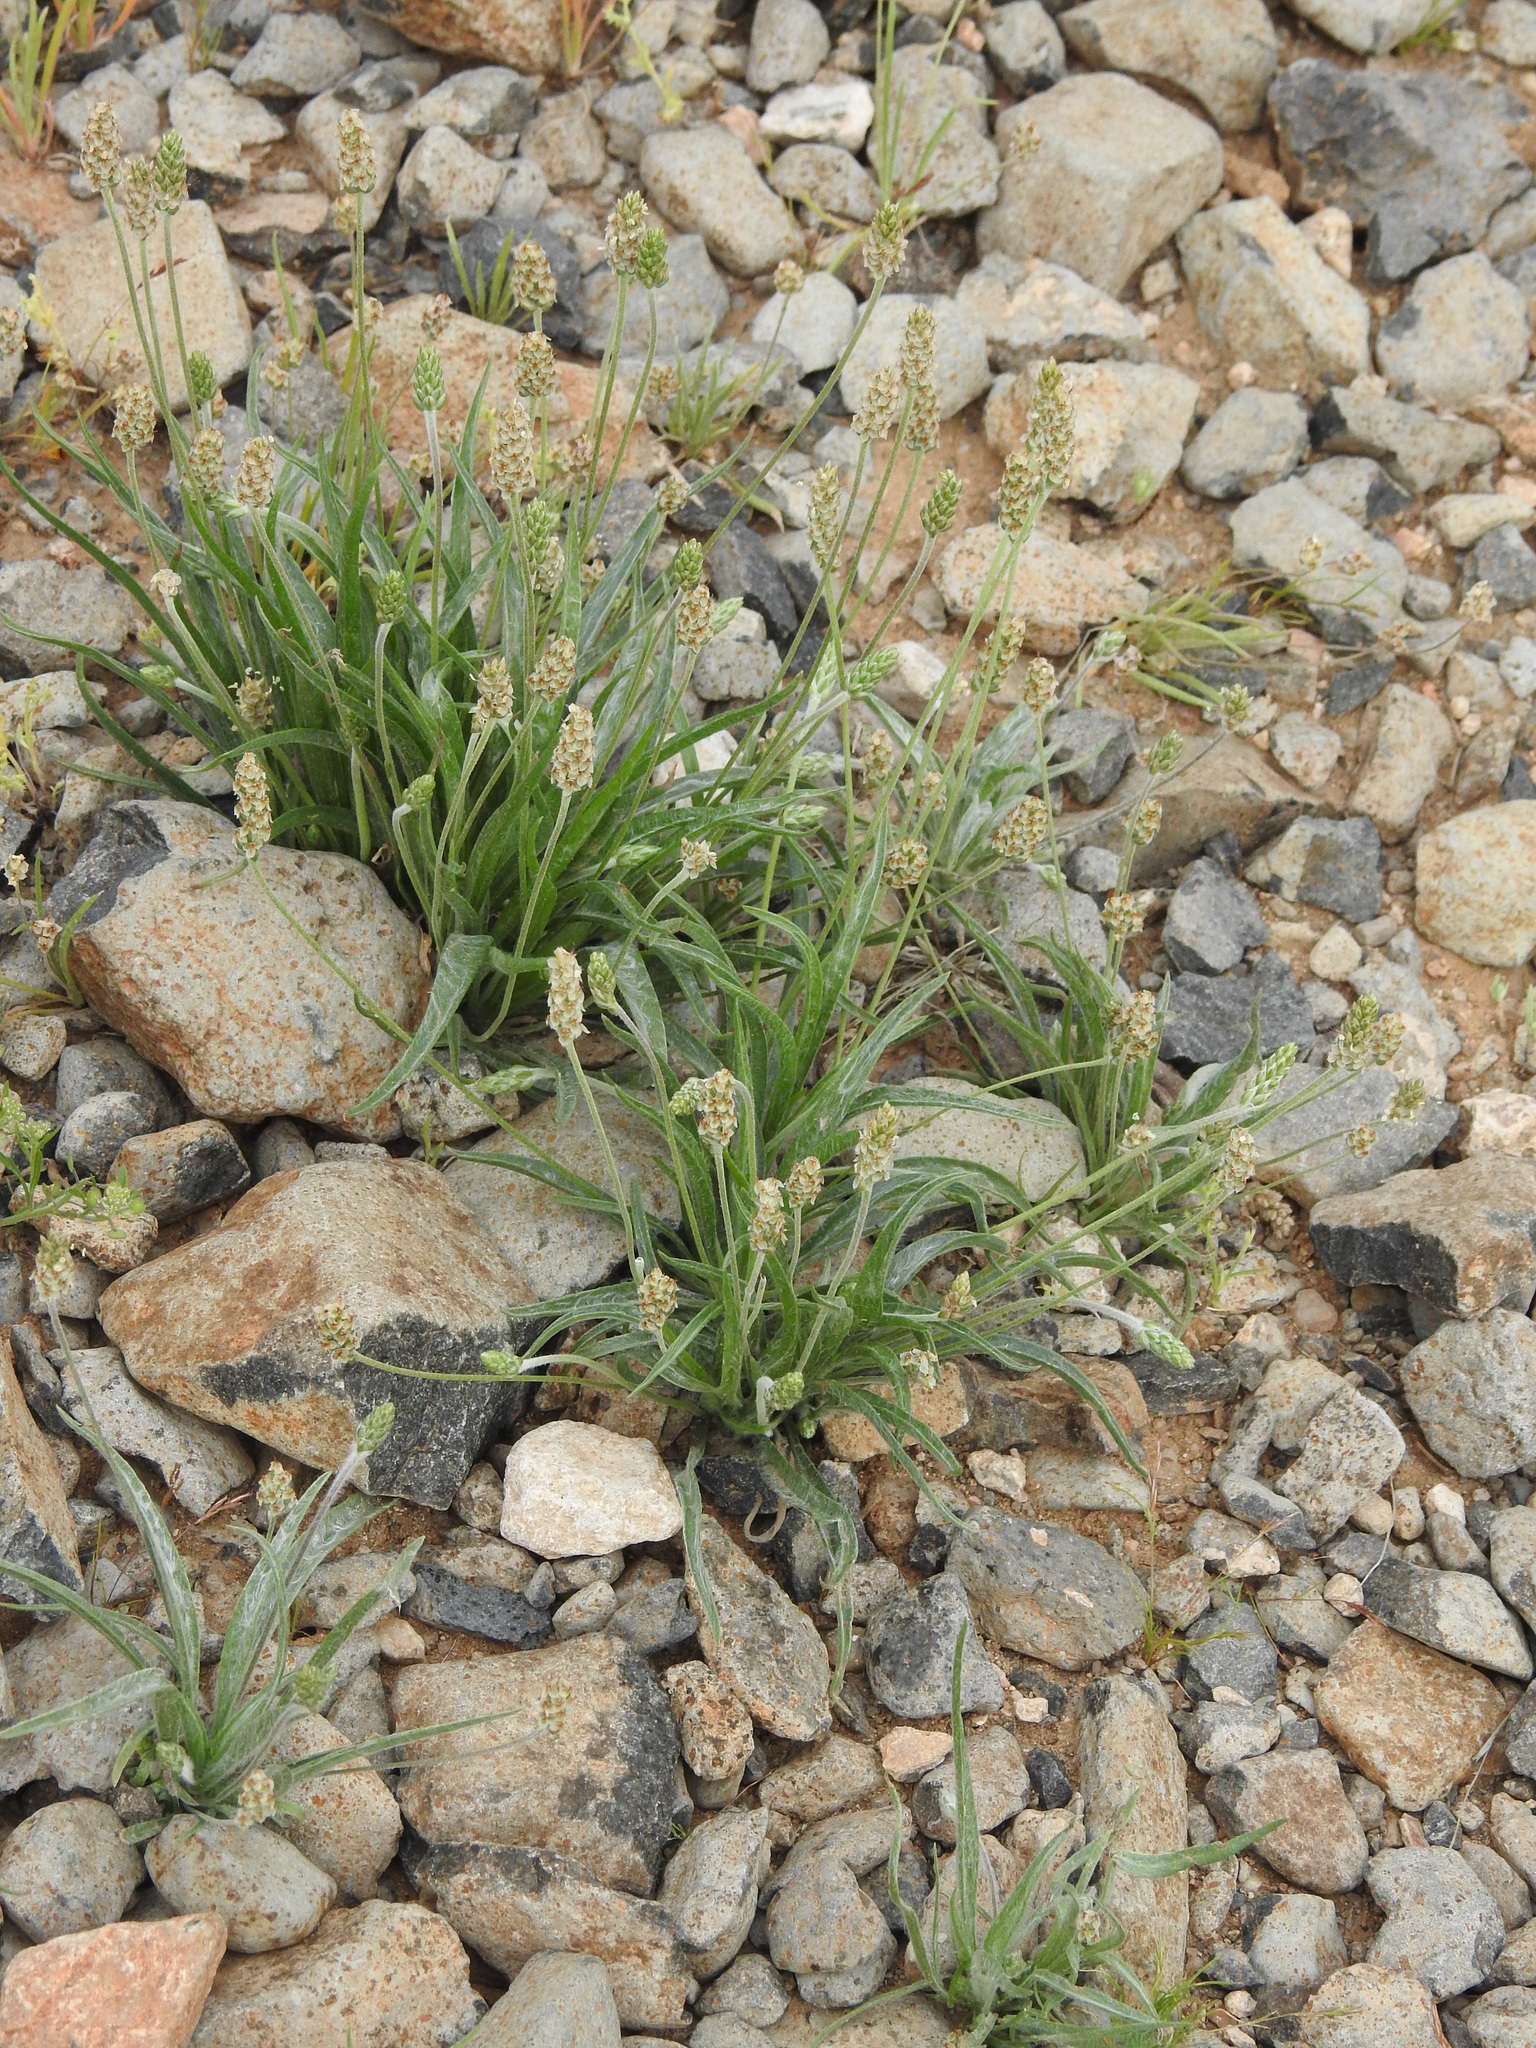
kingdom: Plantae
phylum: Tracheophyta
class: Magnoliopsida
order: Lamiales
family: Plantaginaceae
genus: Plantago
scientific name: Plantago ovata
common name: Blond plantain
